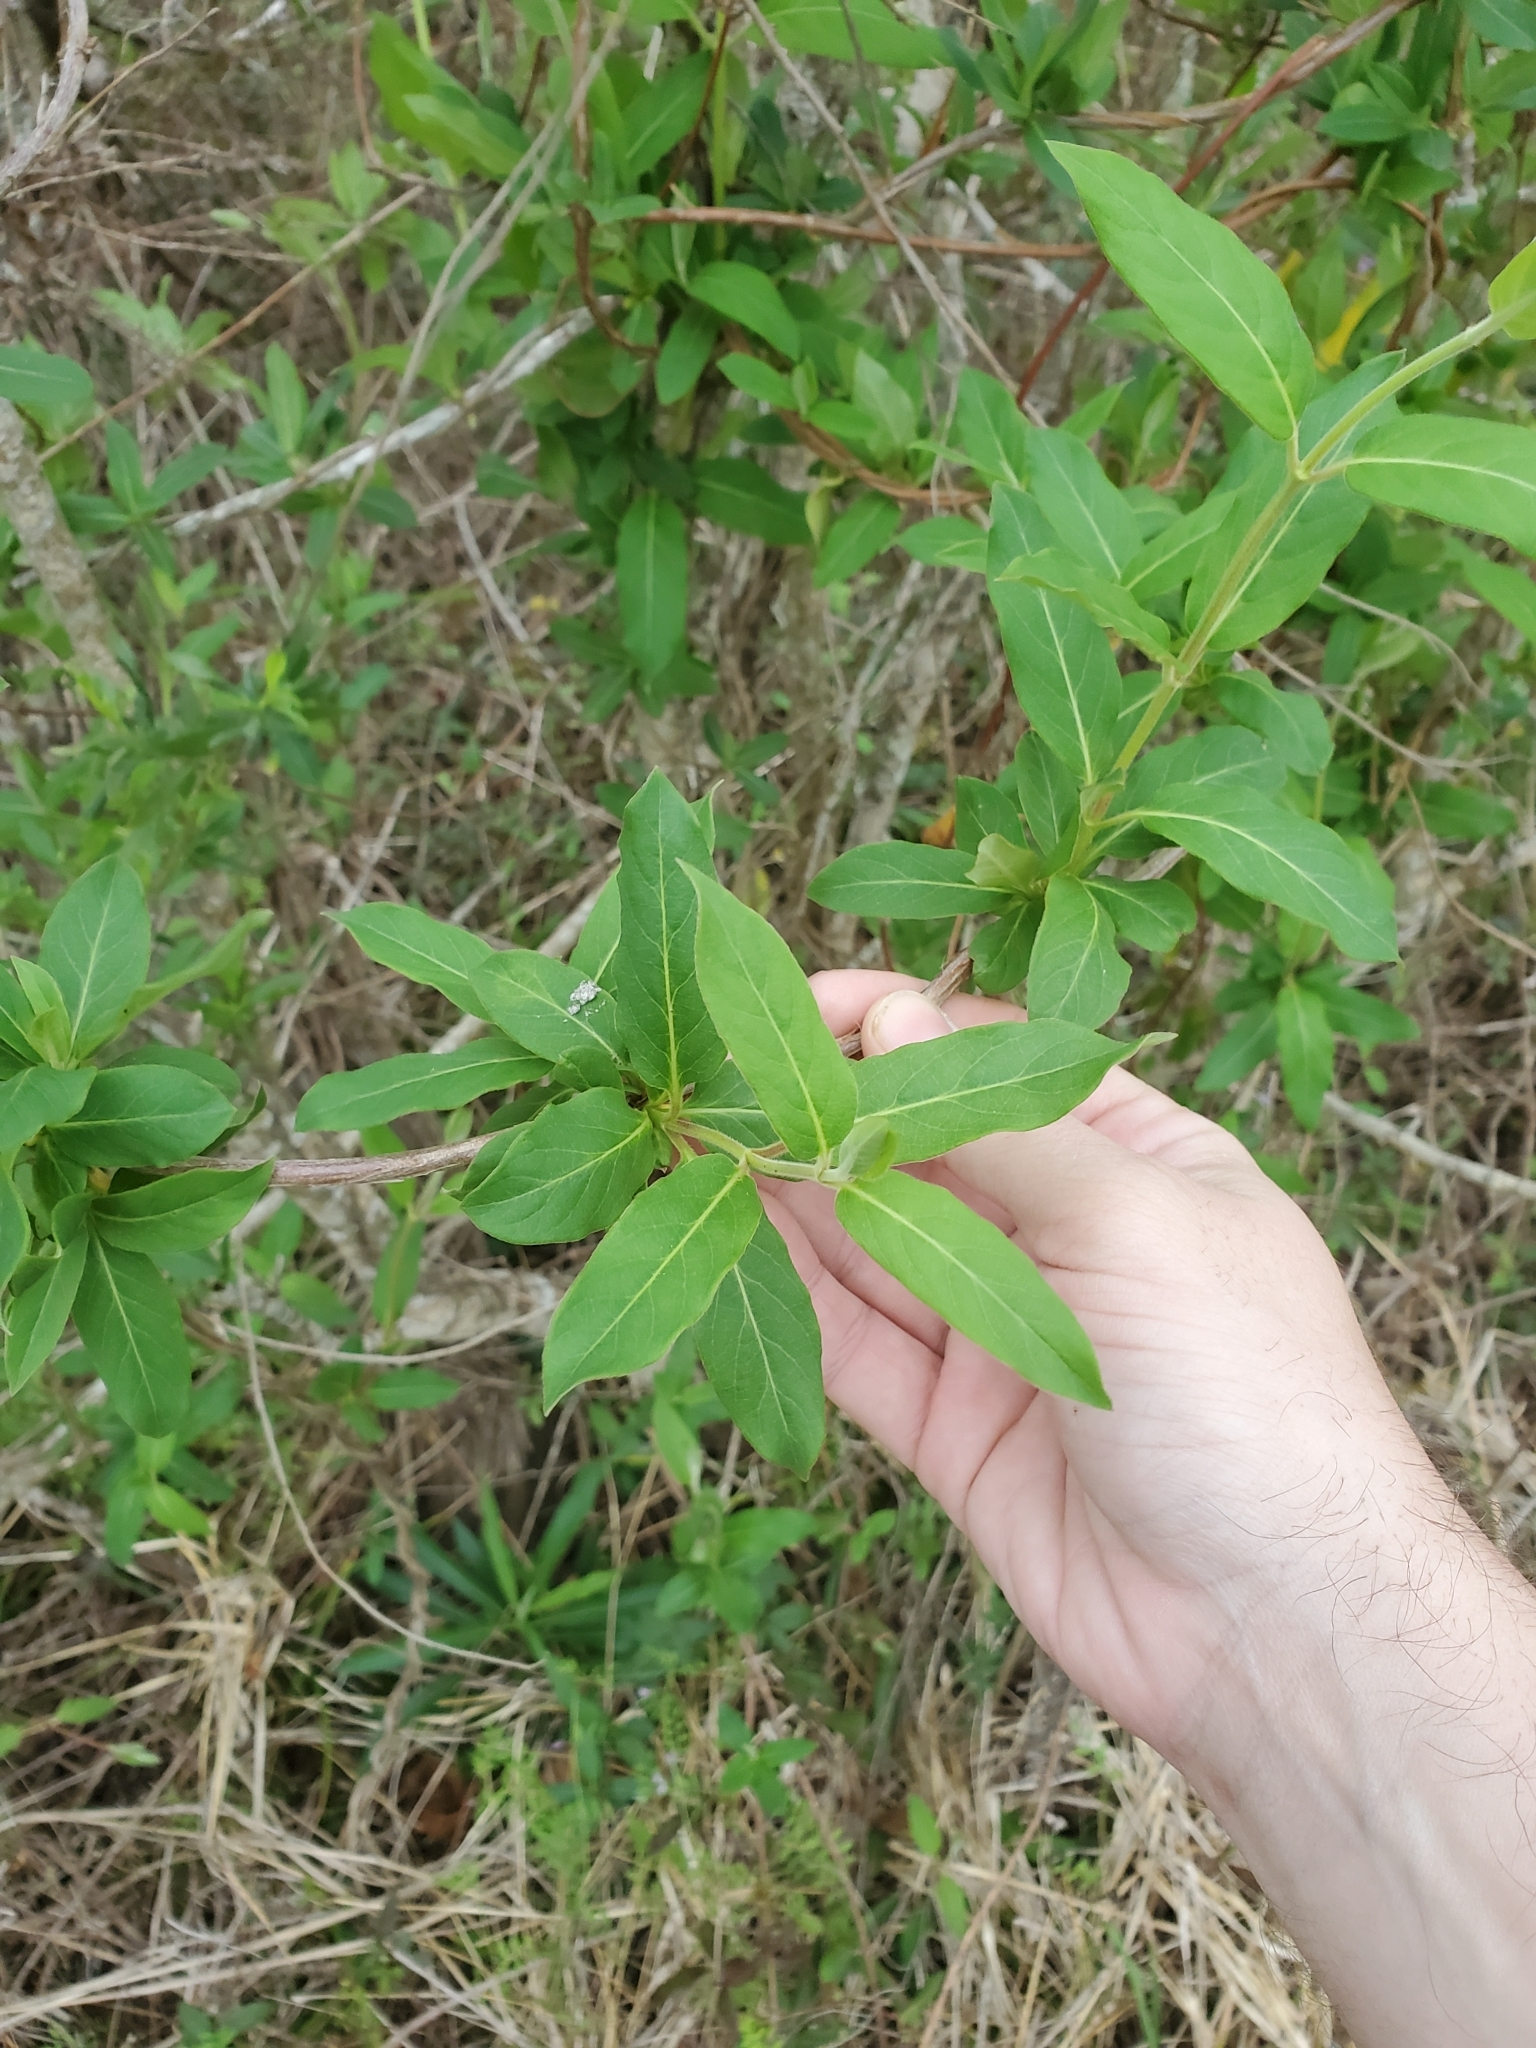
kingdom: Plantae
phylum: Tracheophyta
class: Magnoliopsida
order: Dipsacales
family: Caprifoliaceae
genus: Lonicera
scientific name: Lonicera japonica
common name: Japanese honeysuckle
